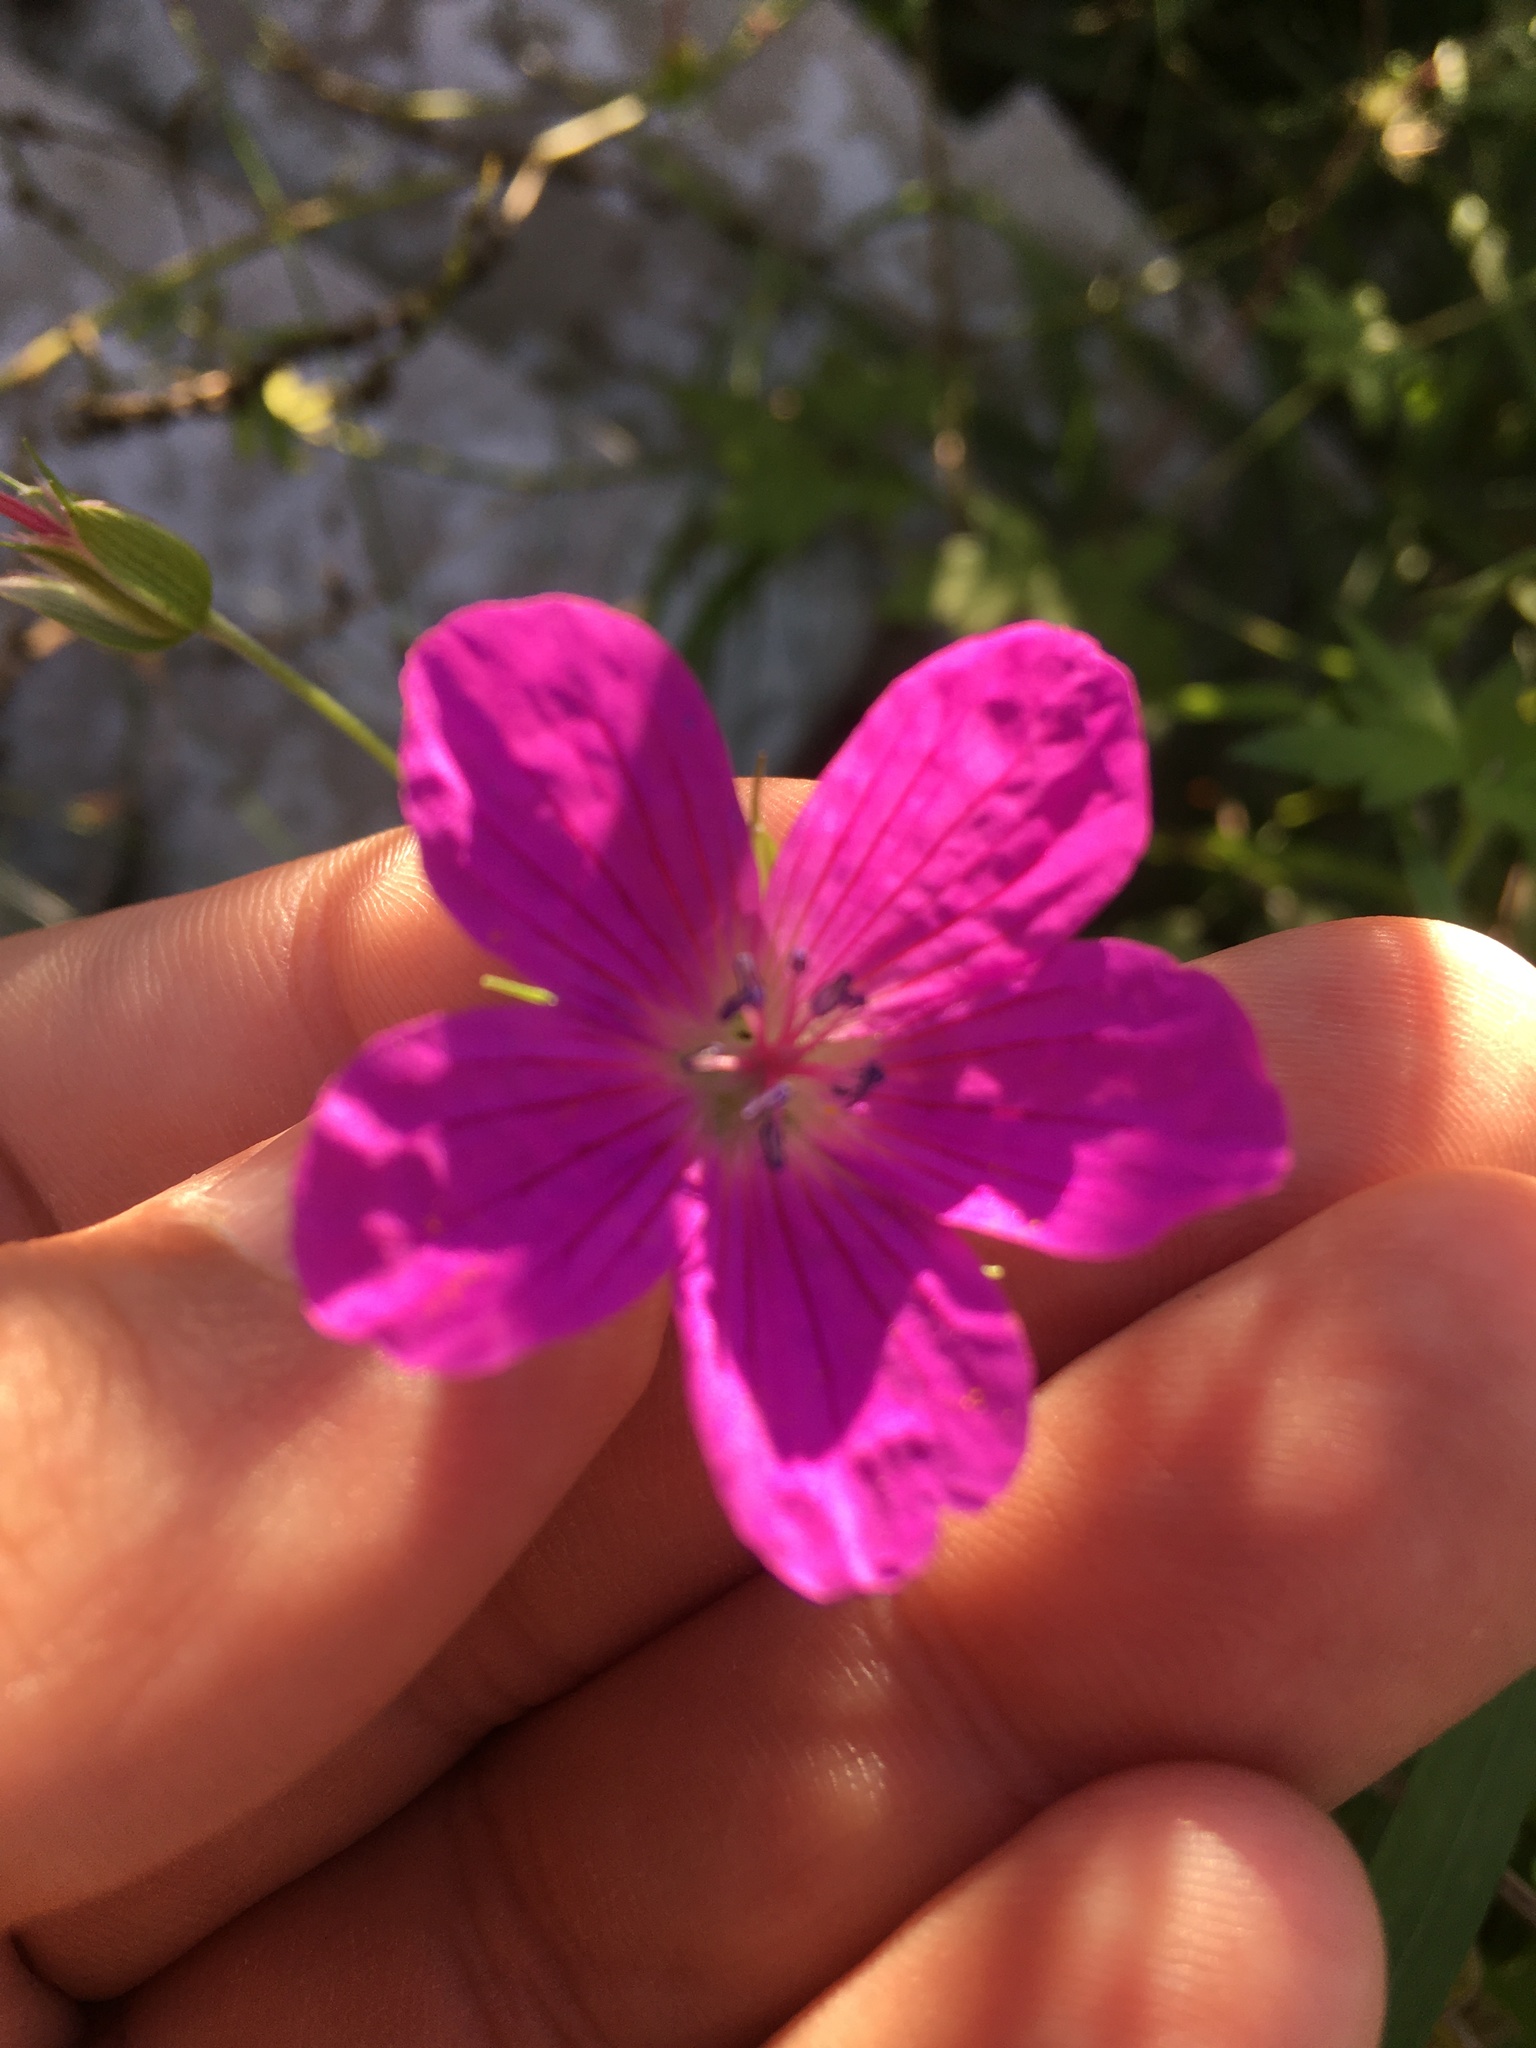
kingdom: Plantae
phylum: Tracheophyta
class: Magnoliopsida
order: Geraniales
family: Geraniaceae
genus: Geranium
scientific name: Geranium palustre
